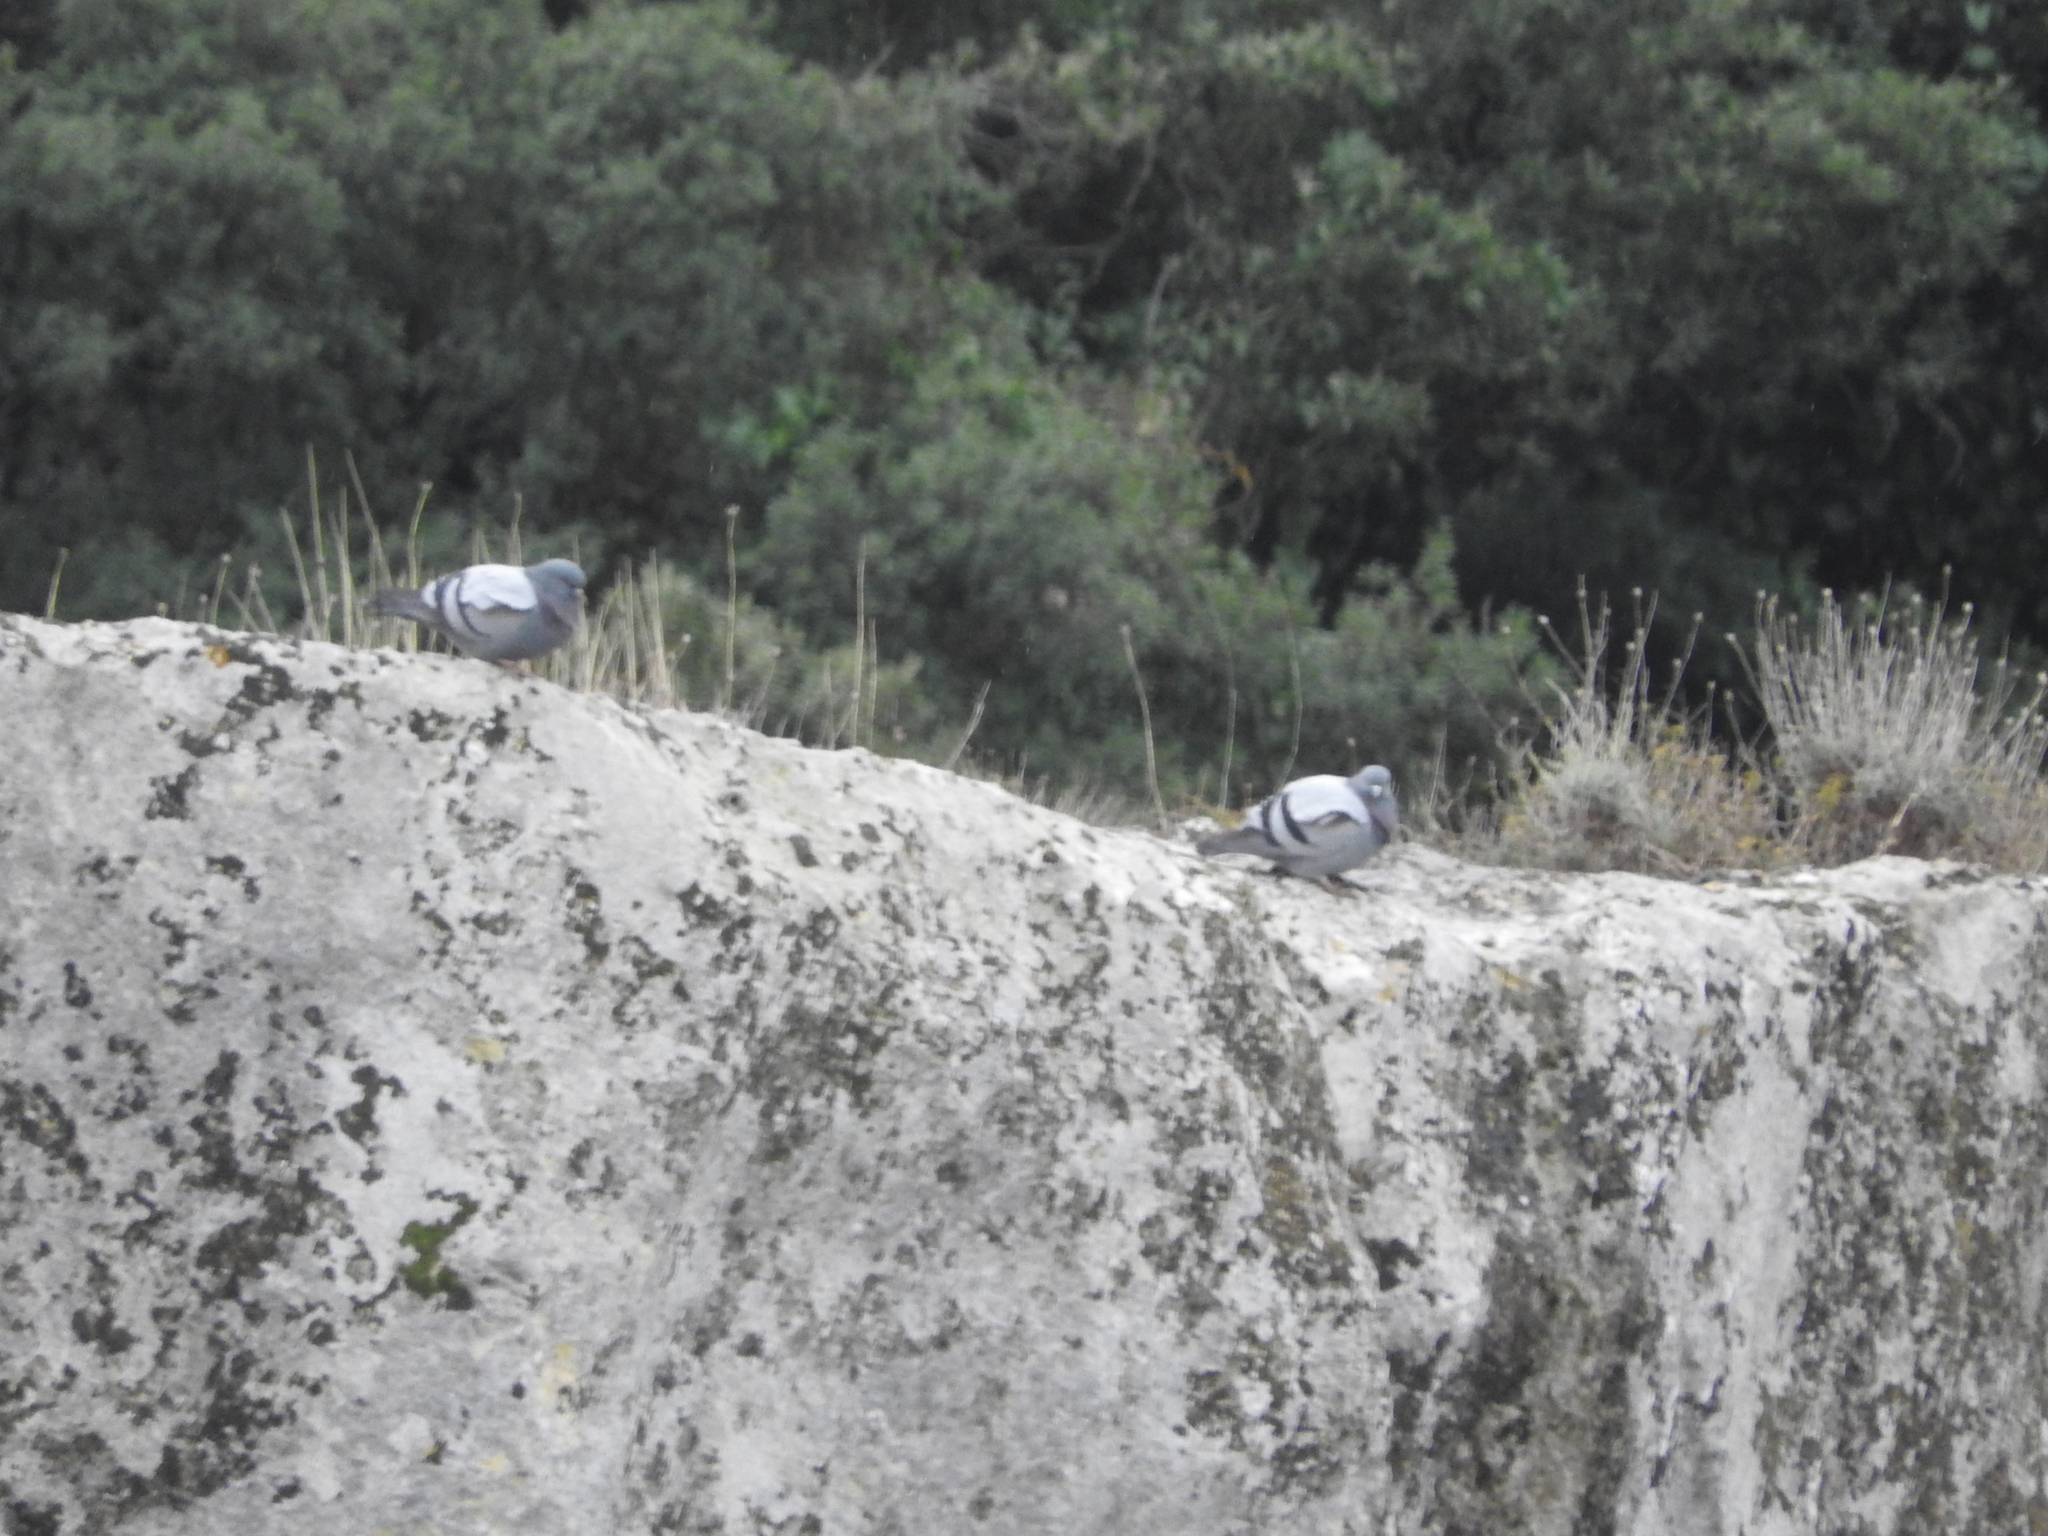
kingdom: Animalia
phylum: Chordata
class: Aves
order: Columbiformes
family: Columbidae
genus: Columba
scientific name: Columba livia
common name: Rock pigeon
